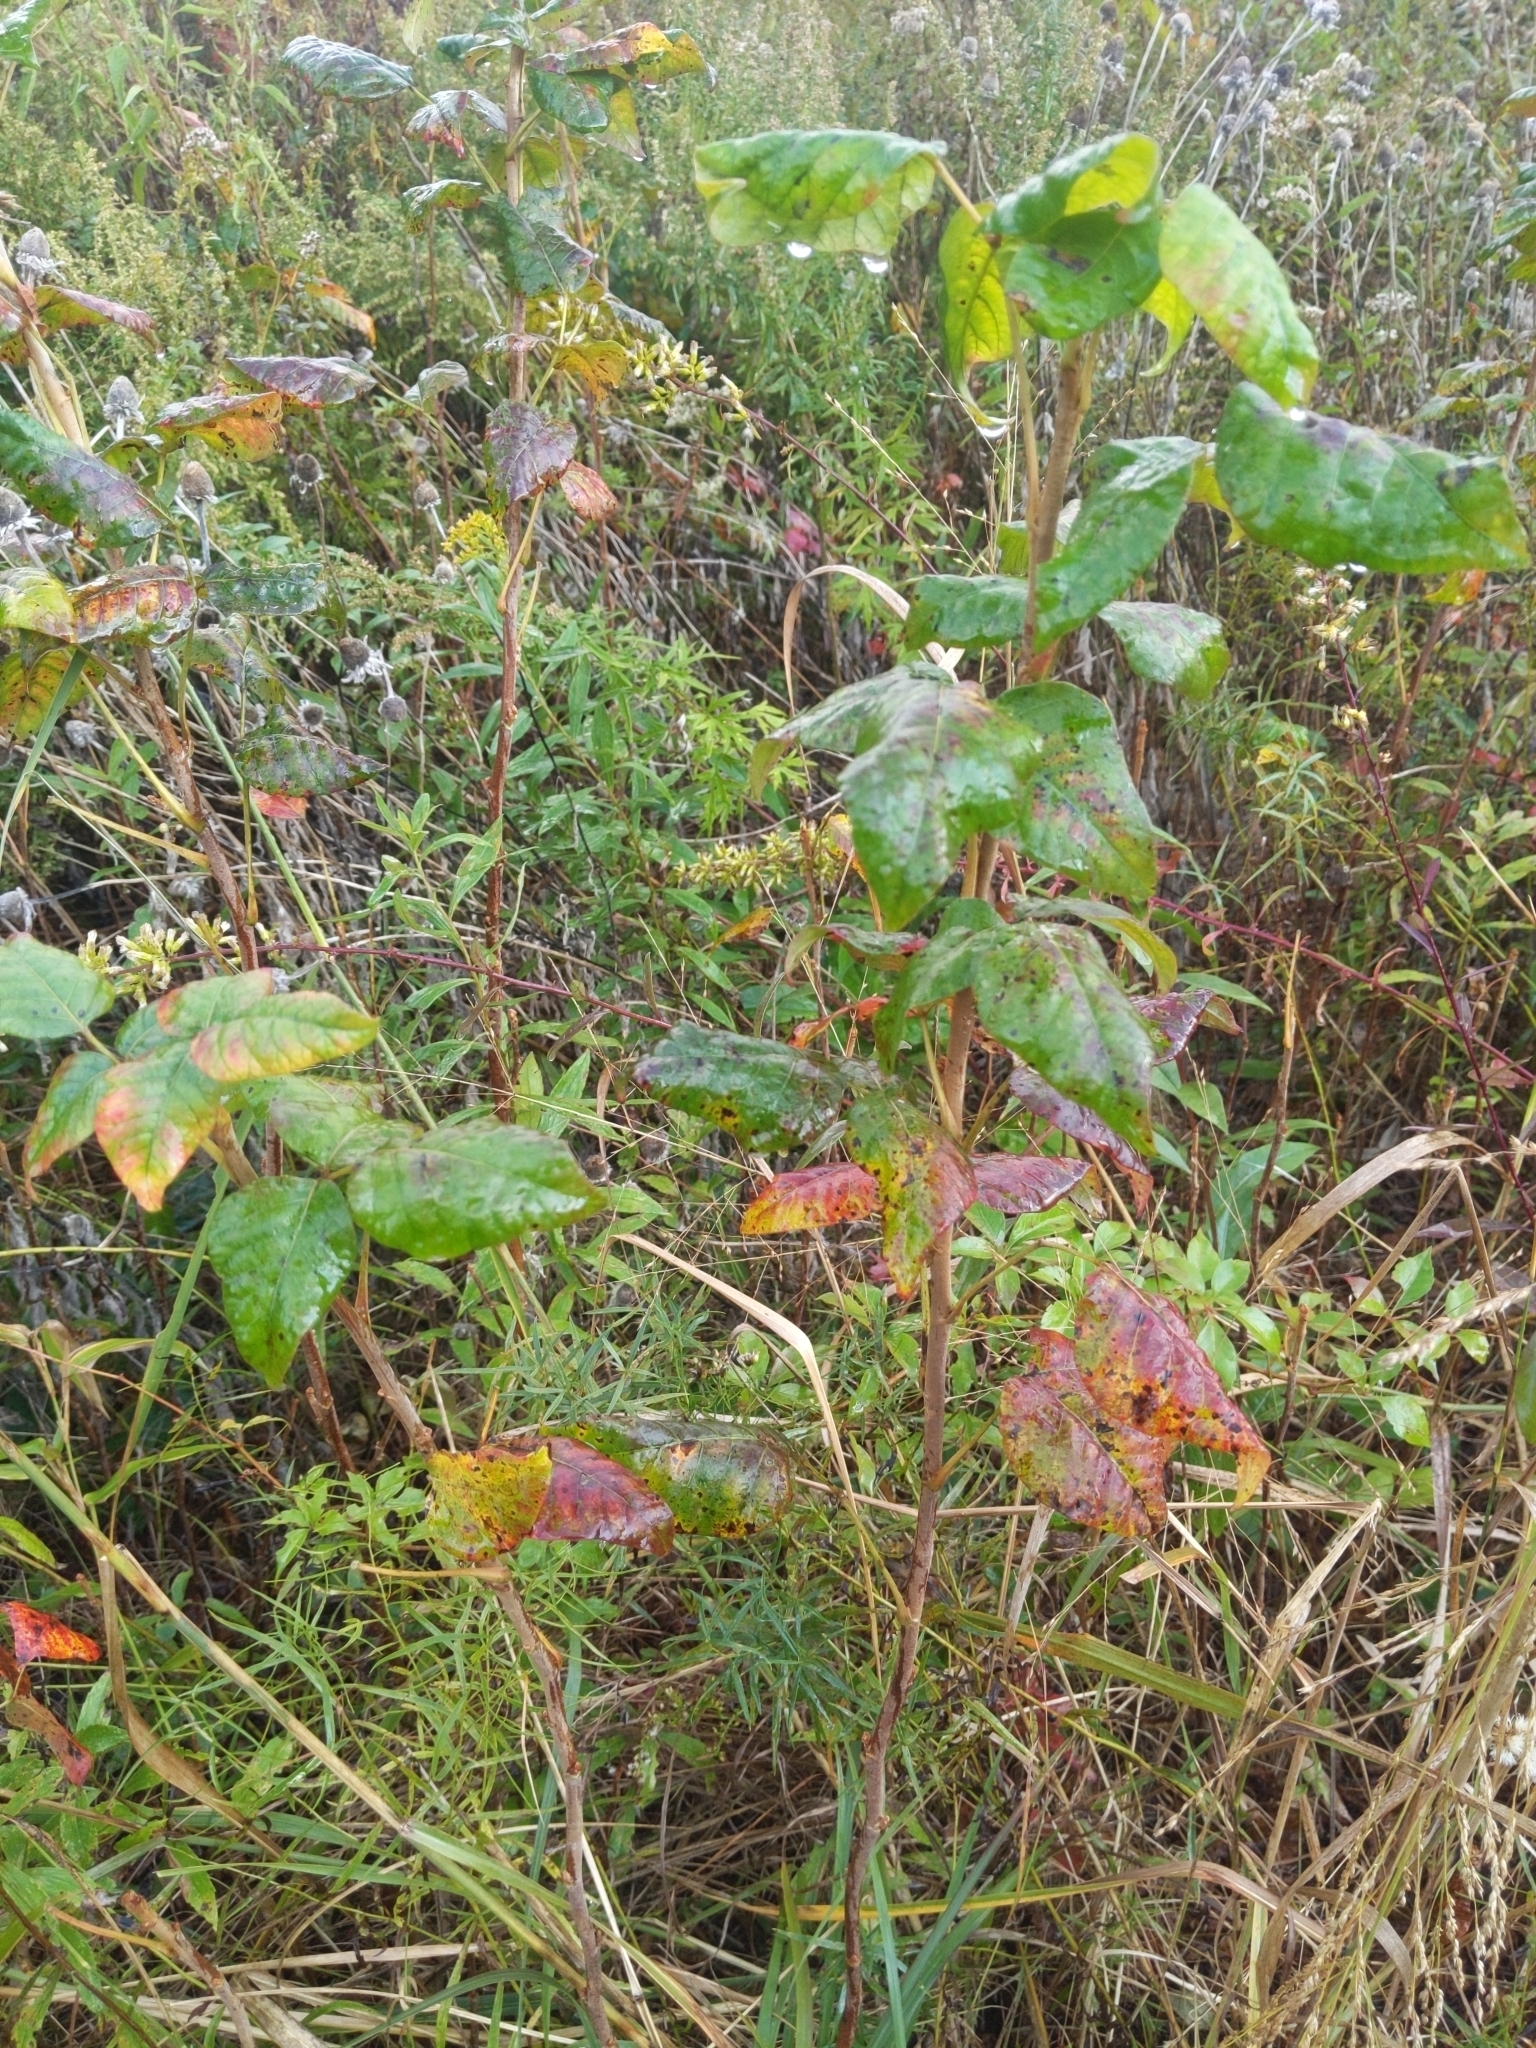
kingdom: Plantae
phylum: Tracheophyta
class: Magnoliopsida
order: Sapindales
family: Anacardiaceae
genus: Toxicodendron
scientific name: Toxicodendron radicans
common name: Poison ivy
